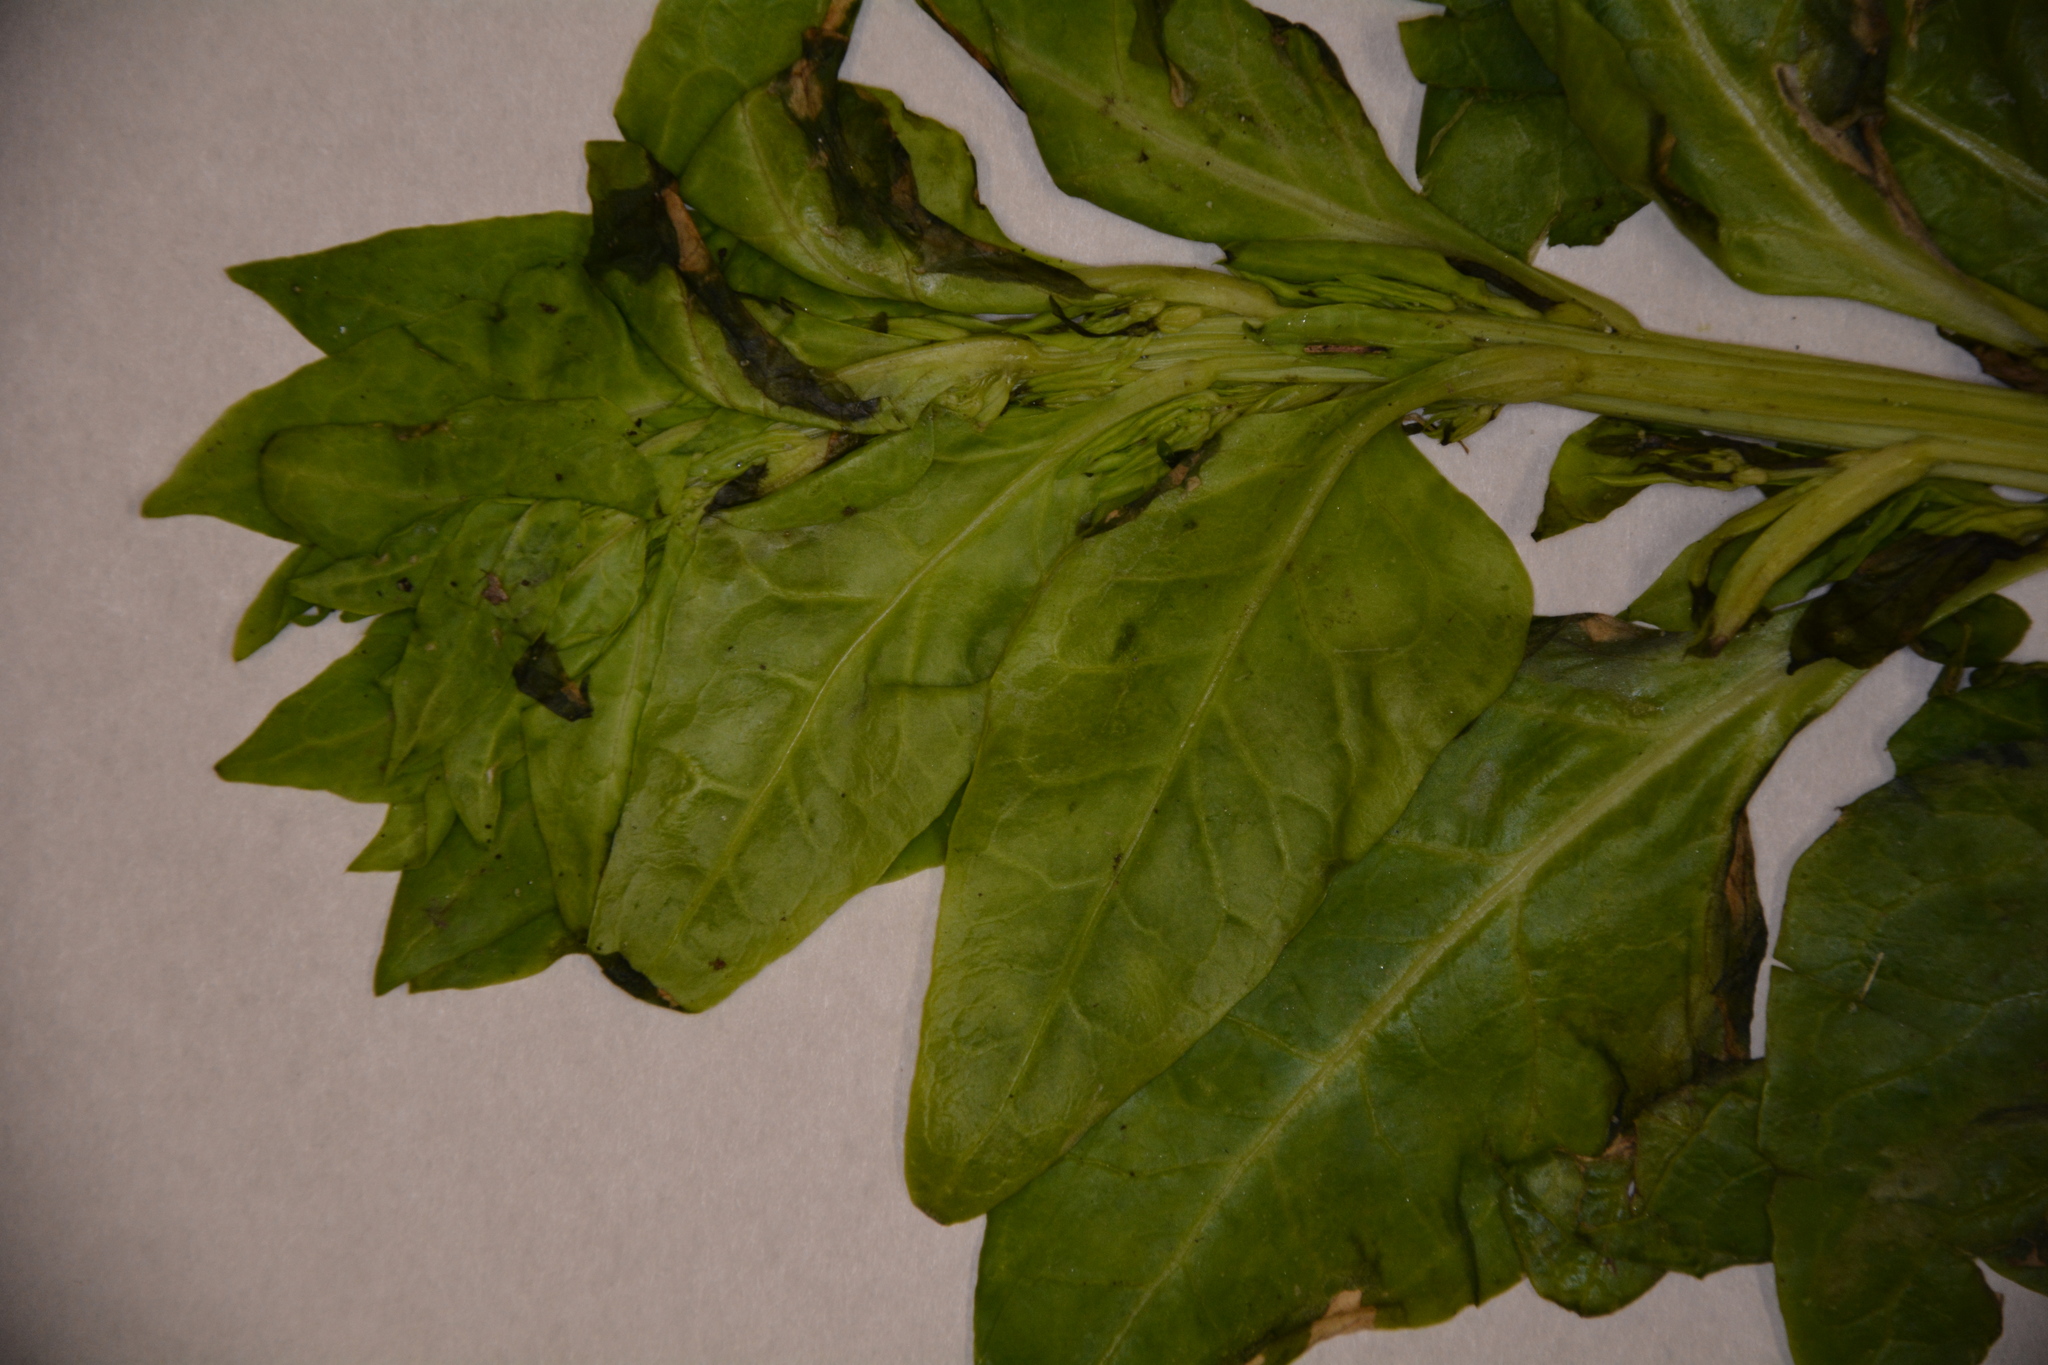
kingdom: Plantae
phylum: Tracheophyta
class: Magnoliopsida
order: Caryophyllales
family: Amaranthaceae
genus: Beta
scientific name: Beta vulgaris
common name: Beet
